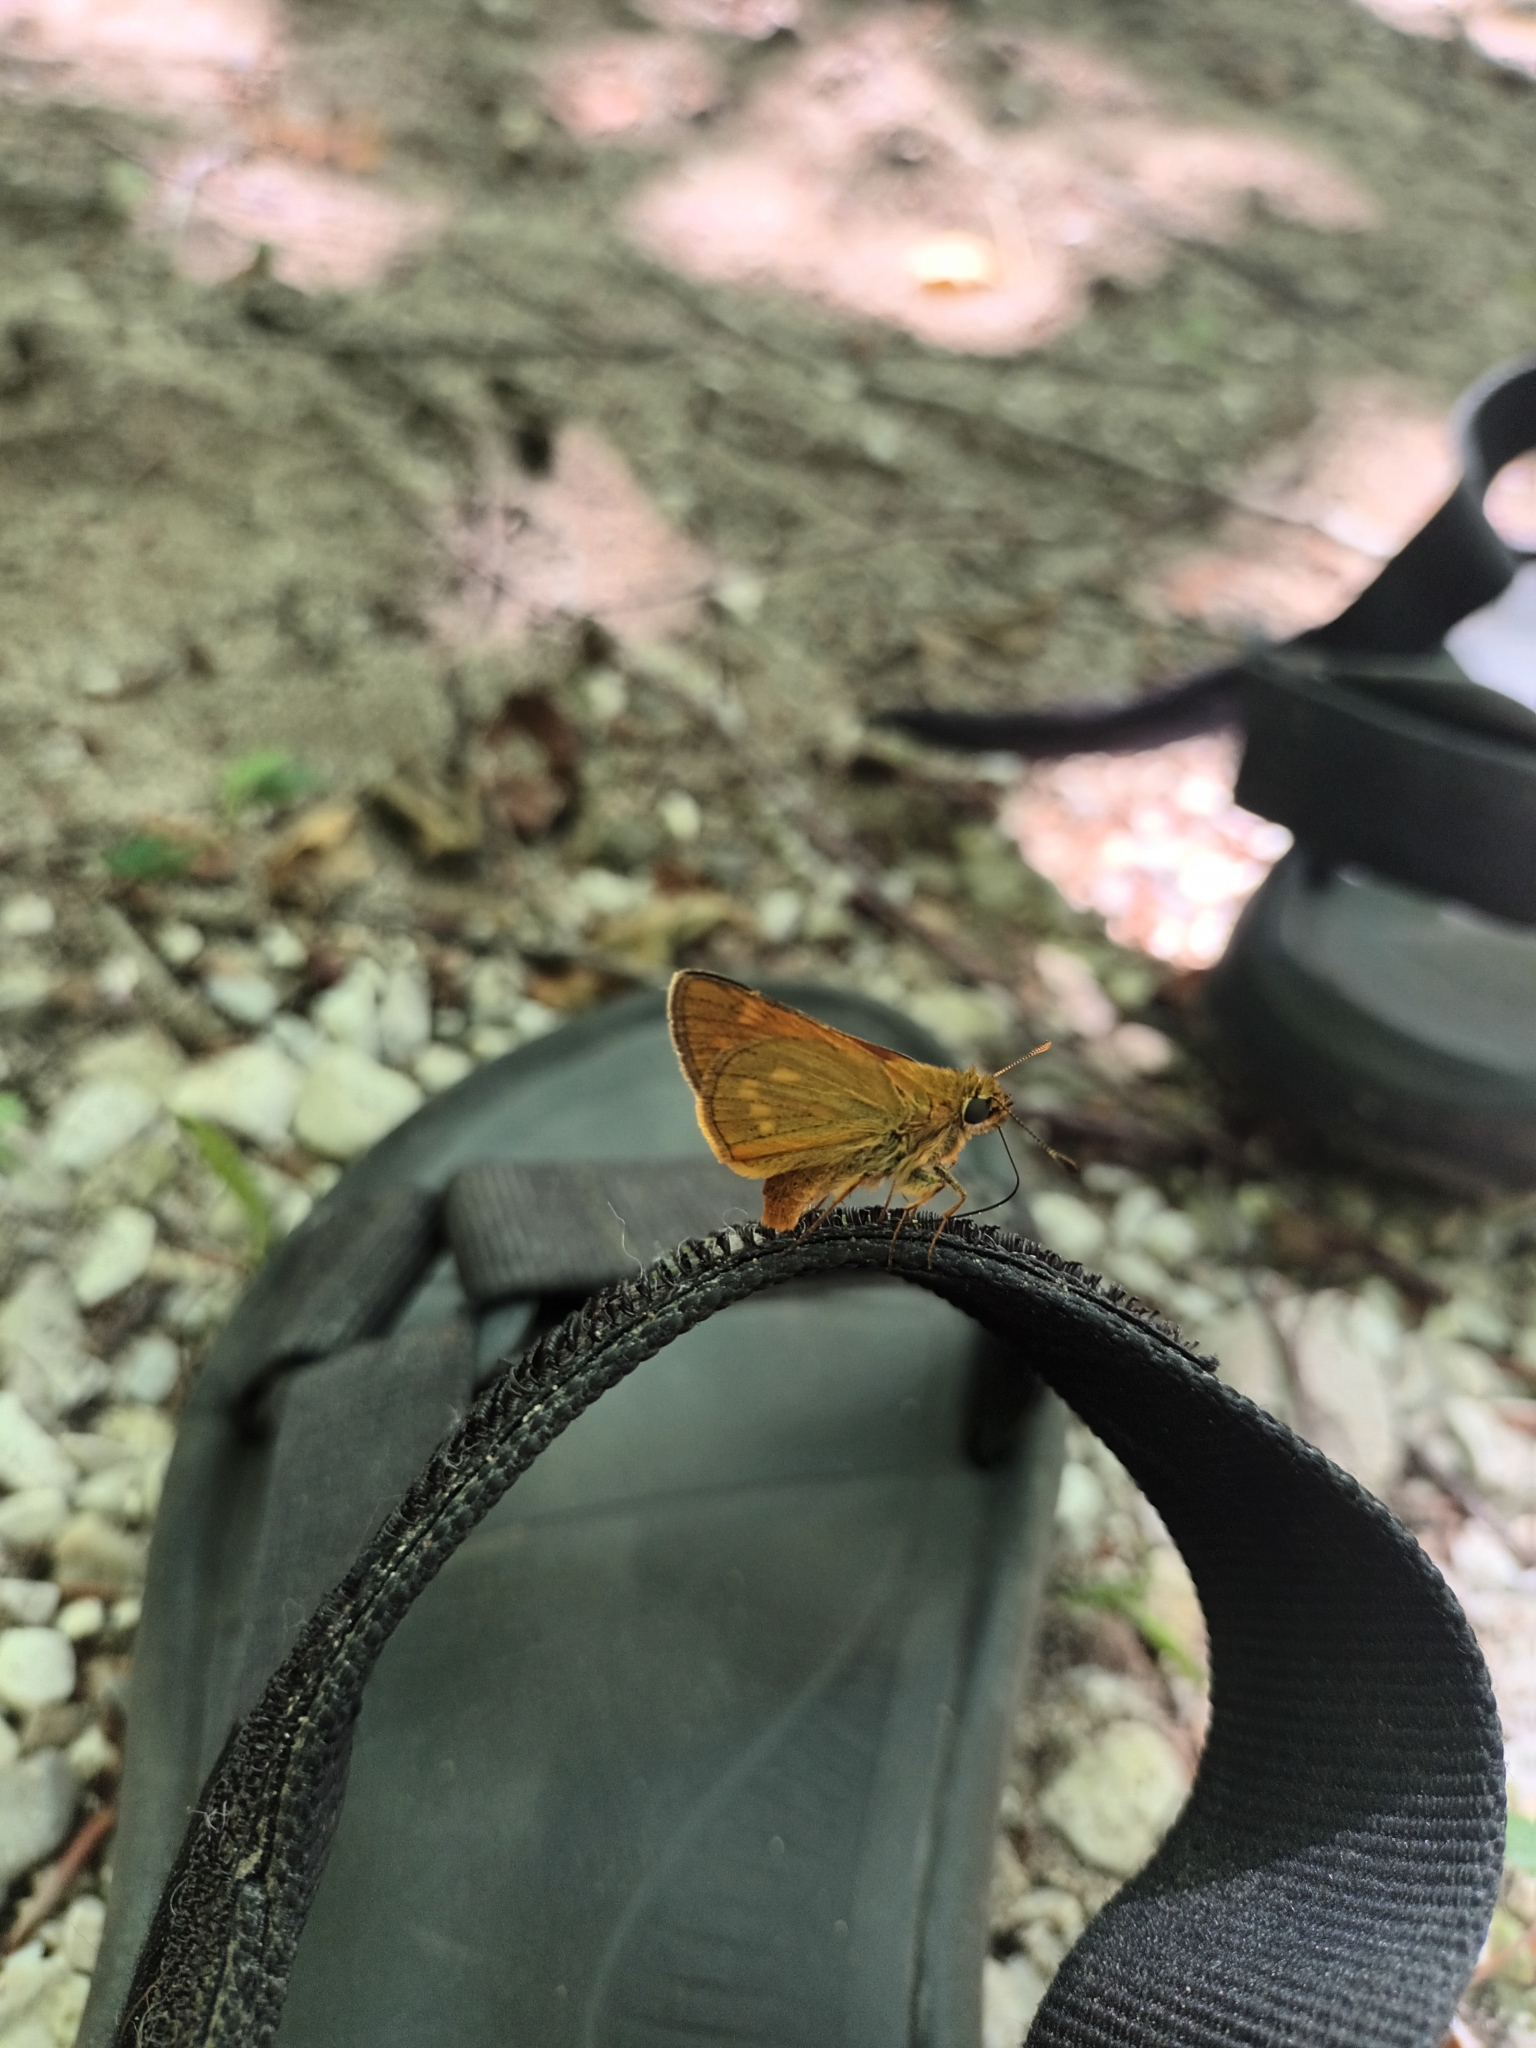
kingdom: Animalia
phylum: Arthropoda
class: Insecta
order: Lepidoptera
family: Hesperiidae
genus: Ochlodes
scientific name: Ochlodes venata
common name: Large skipper
